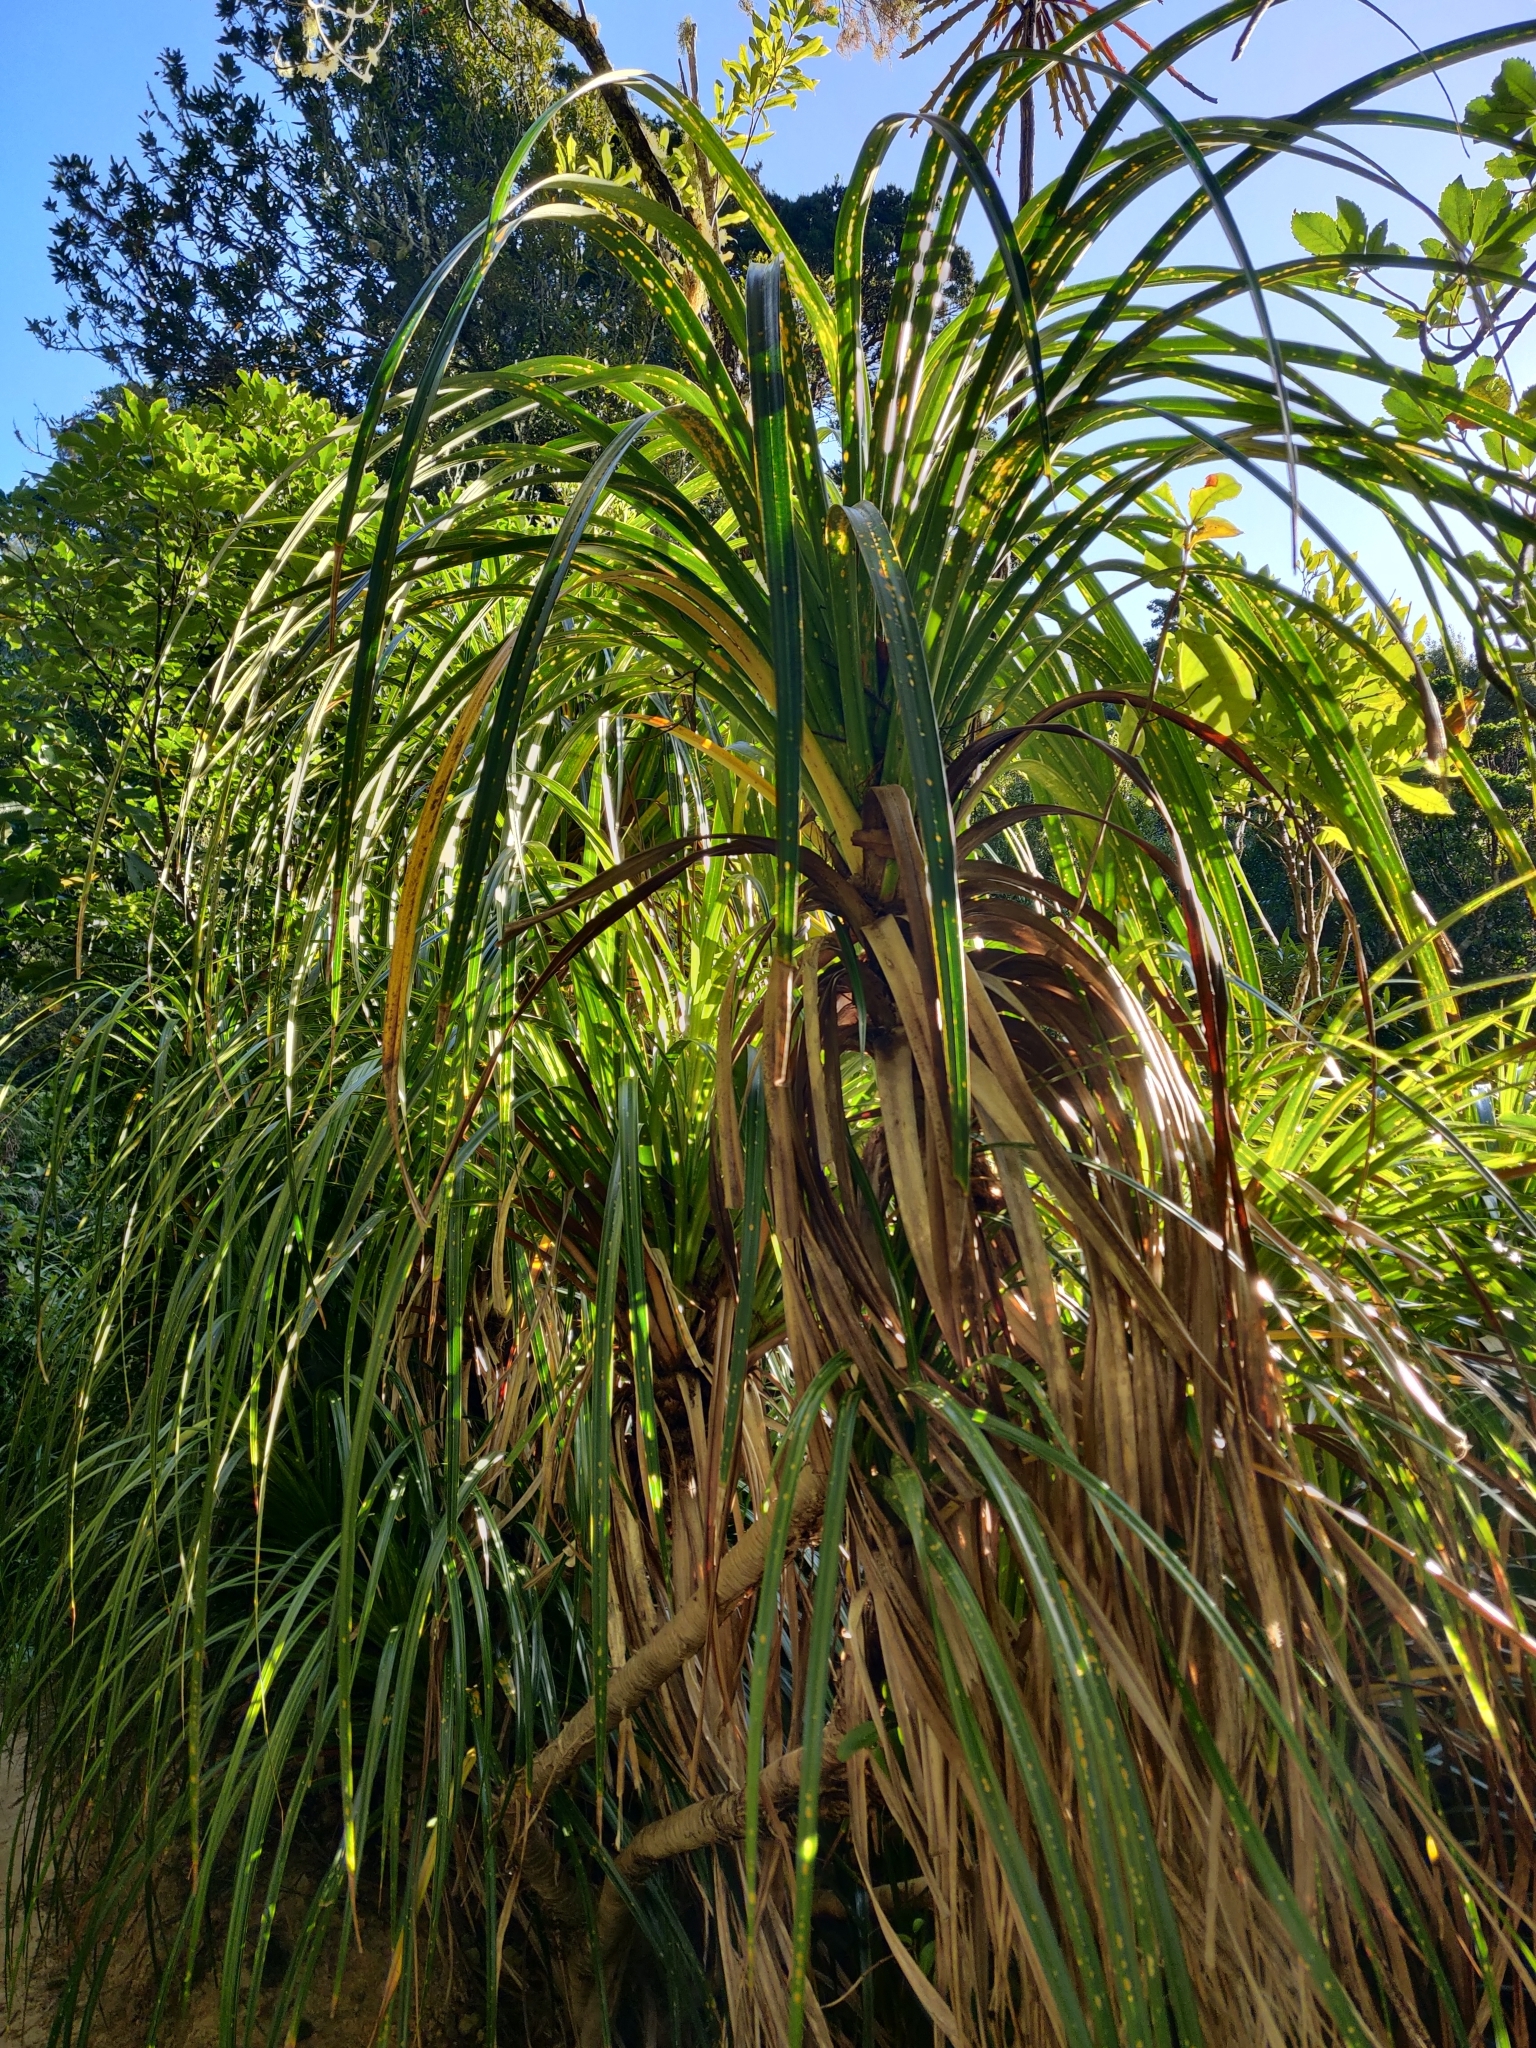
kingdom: Plantae
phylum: Tracheophyta
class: Liliopsida
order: Pandanales
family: Pandanaceae
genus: Freycinetia
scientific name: Freycinetia banksii
